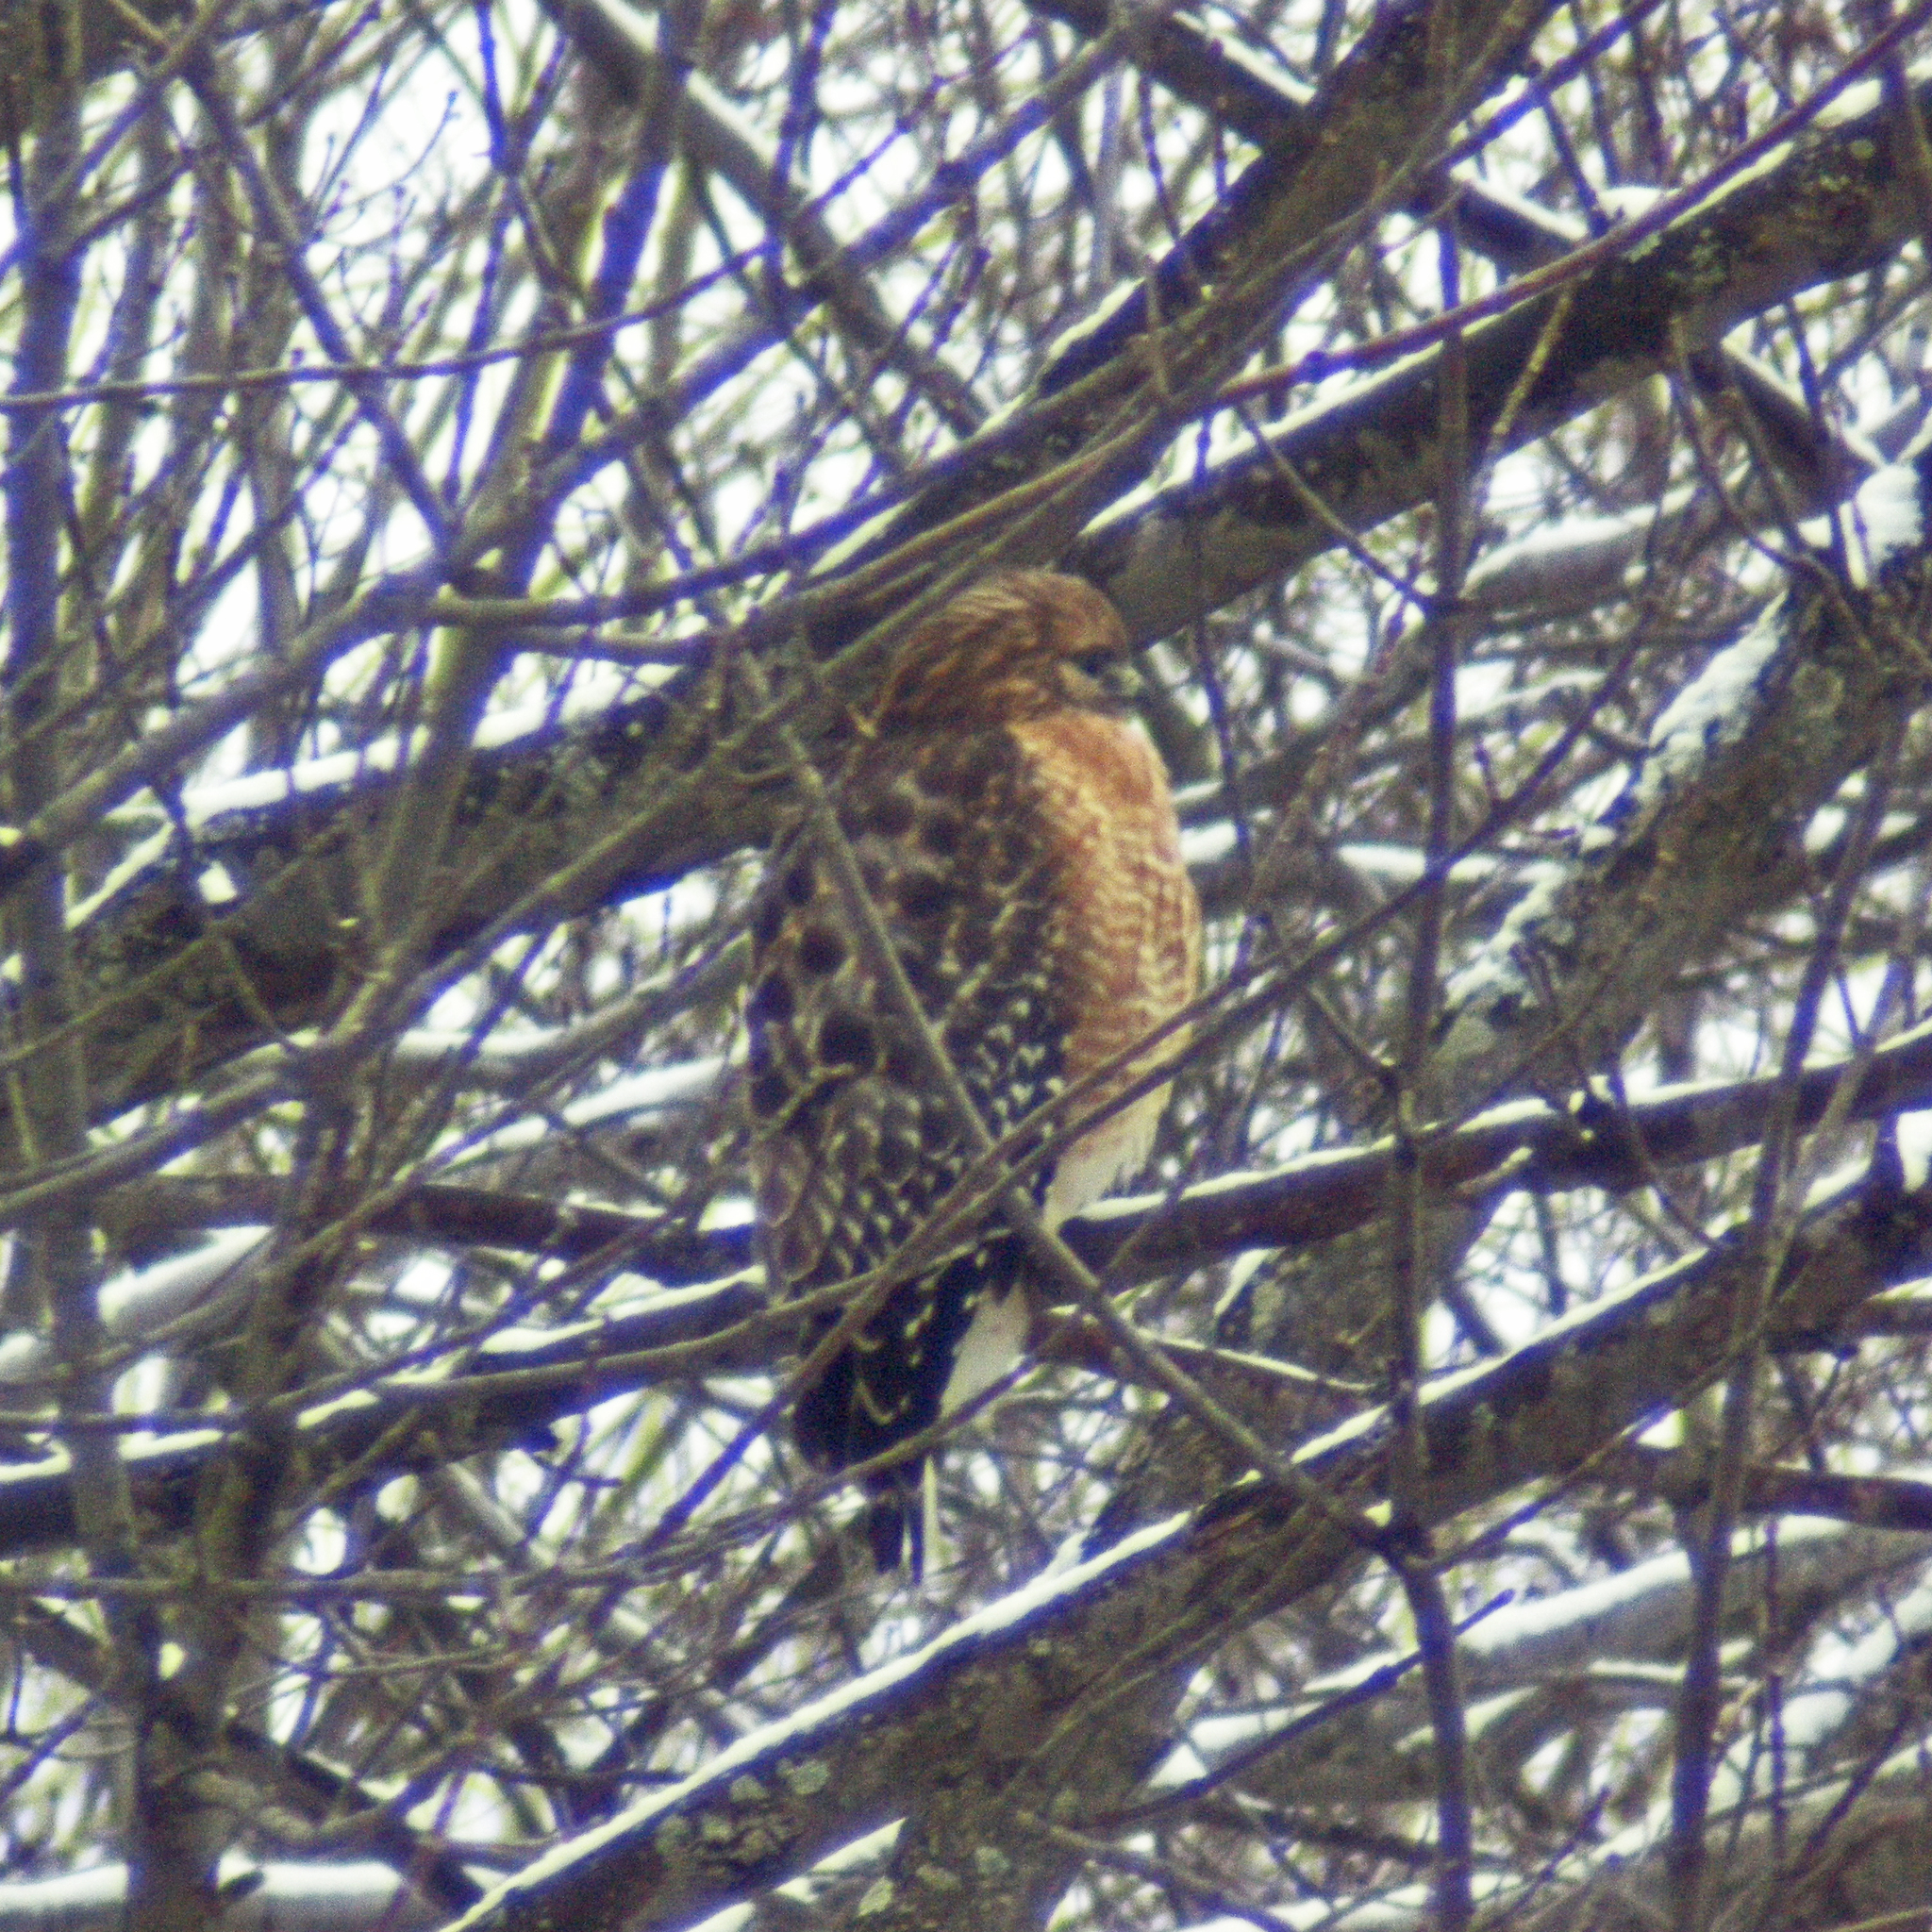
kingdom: Animalia
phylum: Chordata
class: Aves
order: Accipitriformes
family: Accipitridae
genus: Buteo
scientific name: Buteo lineatus
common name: Red-shouldered hawk
